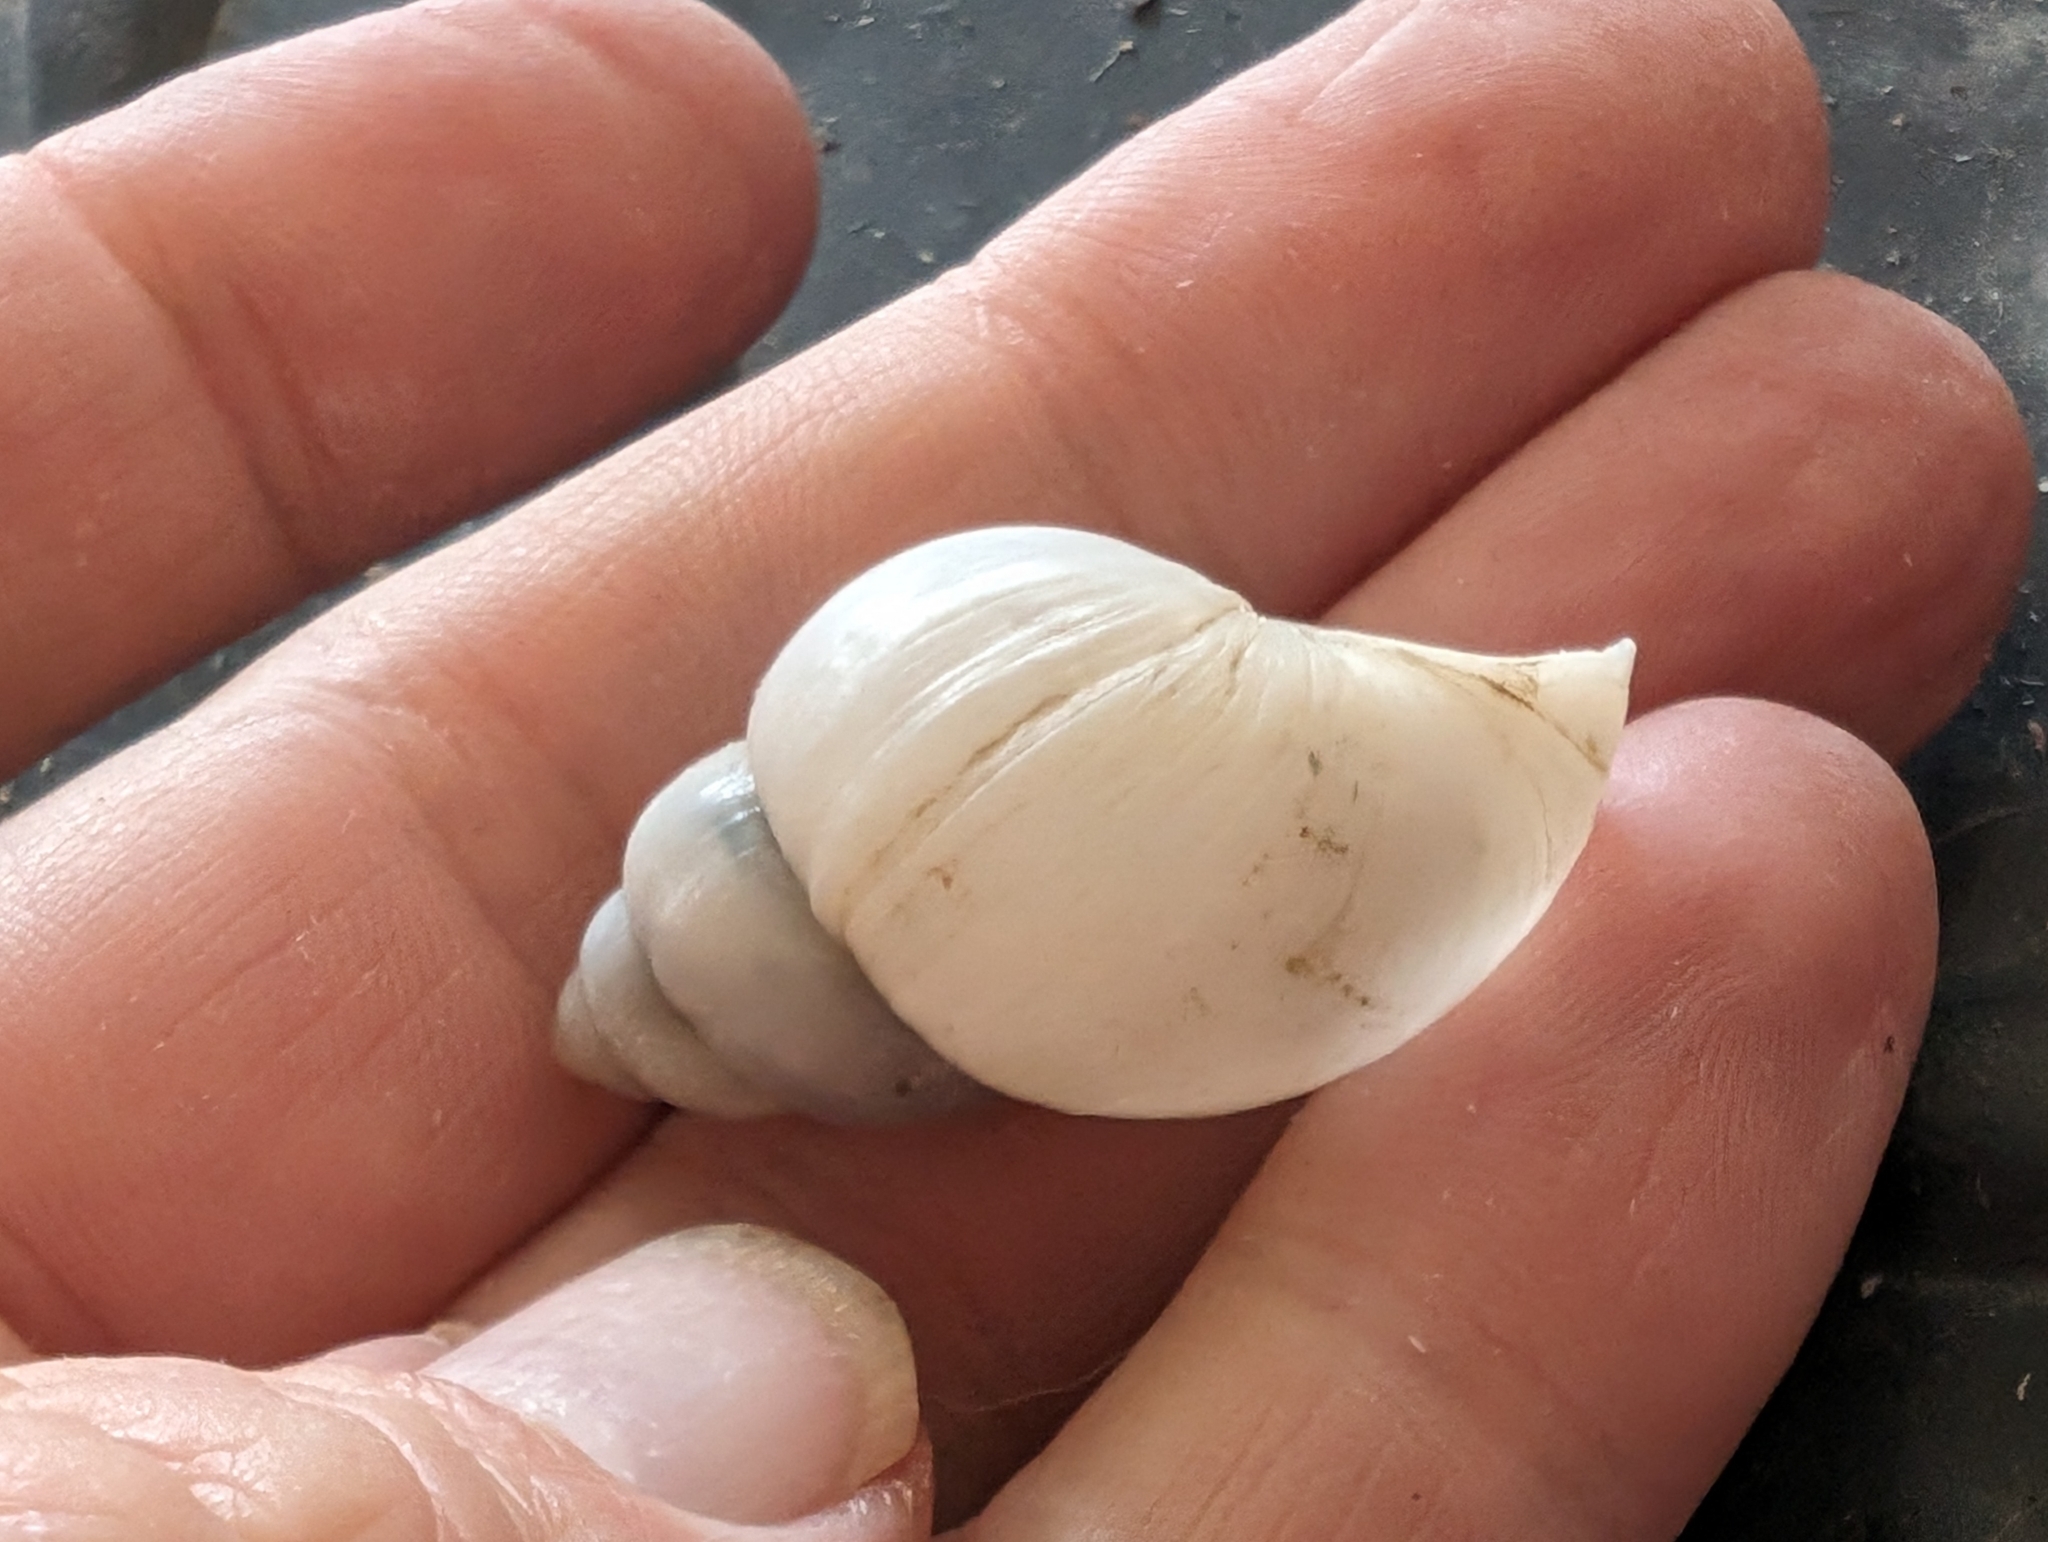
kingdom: Animalia
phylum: Mollusca
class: Gastropoda
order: Architaenioglossa
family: Viviparidae
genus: Campeloma
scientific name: Campeloma decisum
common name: Pointed campeloma
